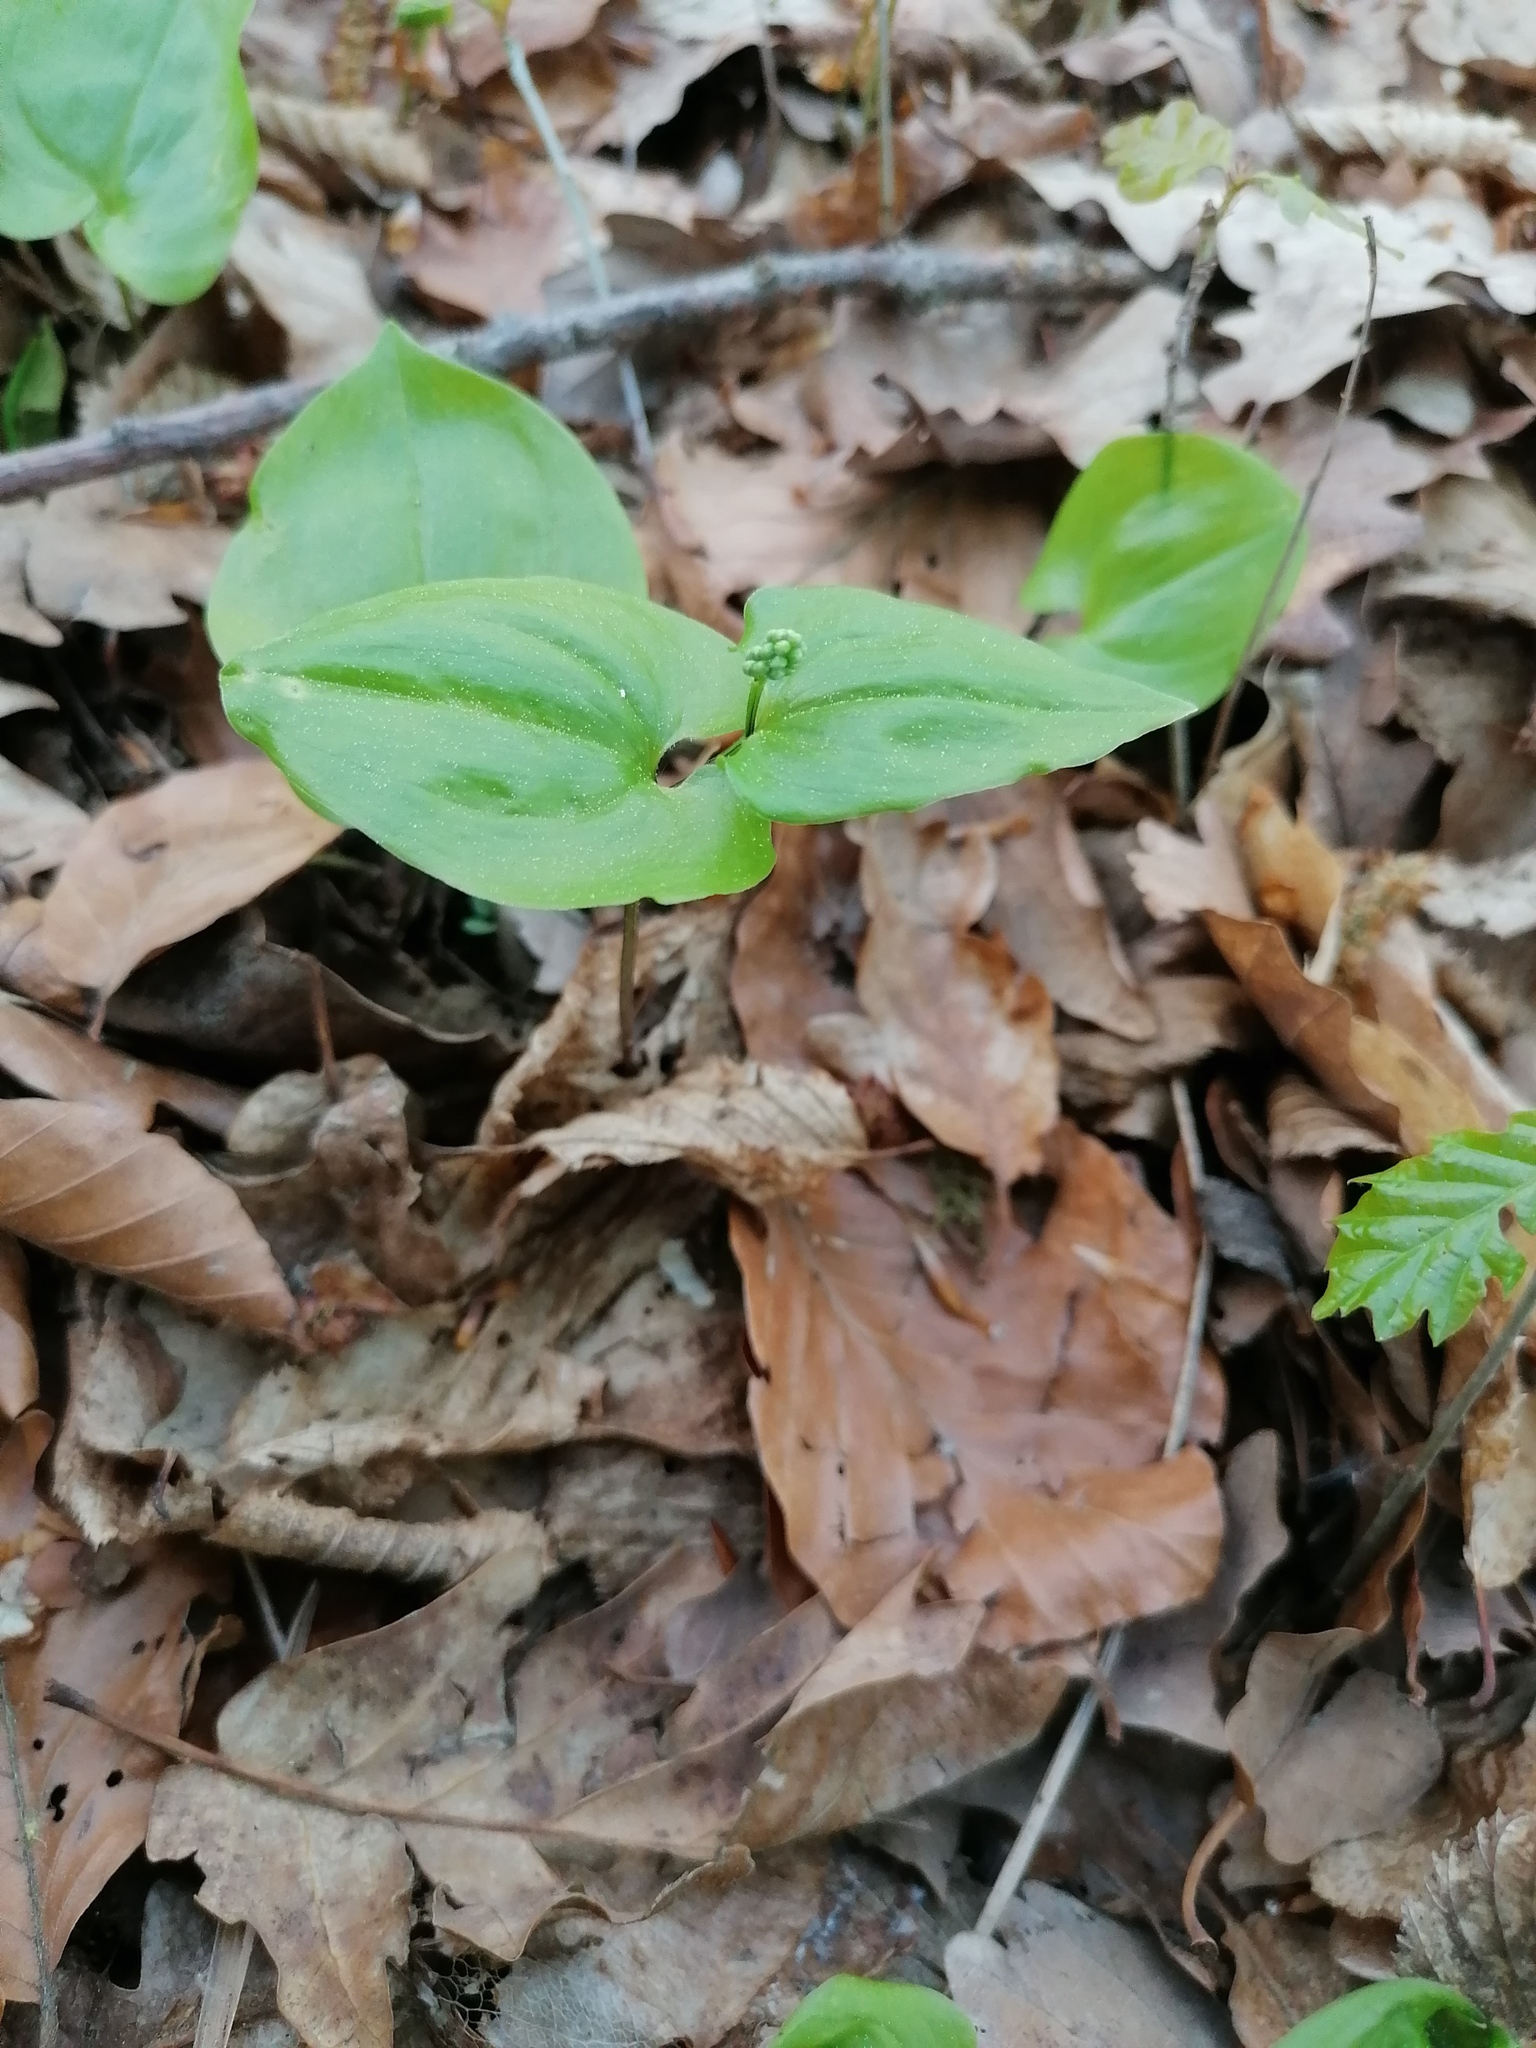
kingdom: Plantae
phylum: Tracheophyta
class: Liliopsida
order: Asparagales
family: Asparagaceae
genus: Maianthemum
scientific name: Maianthemum bifolium
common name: May lily
